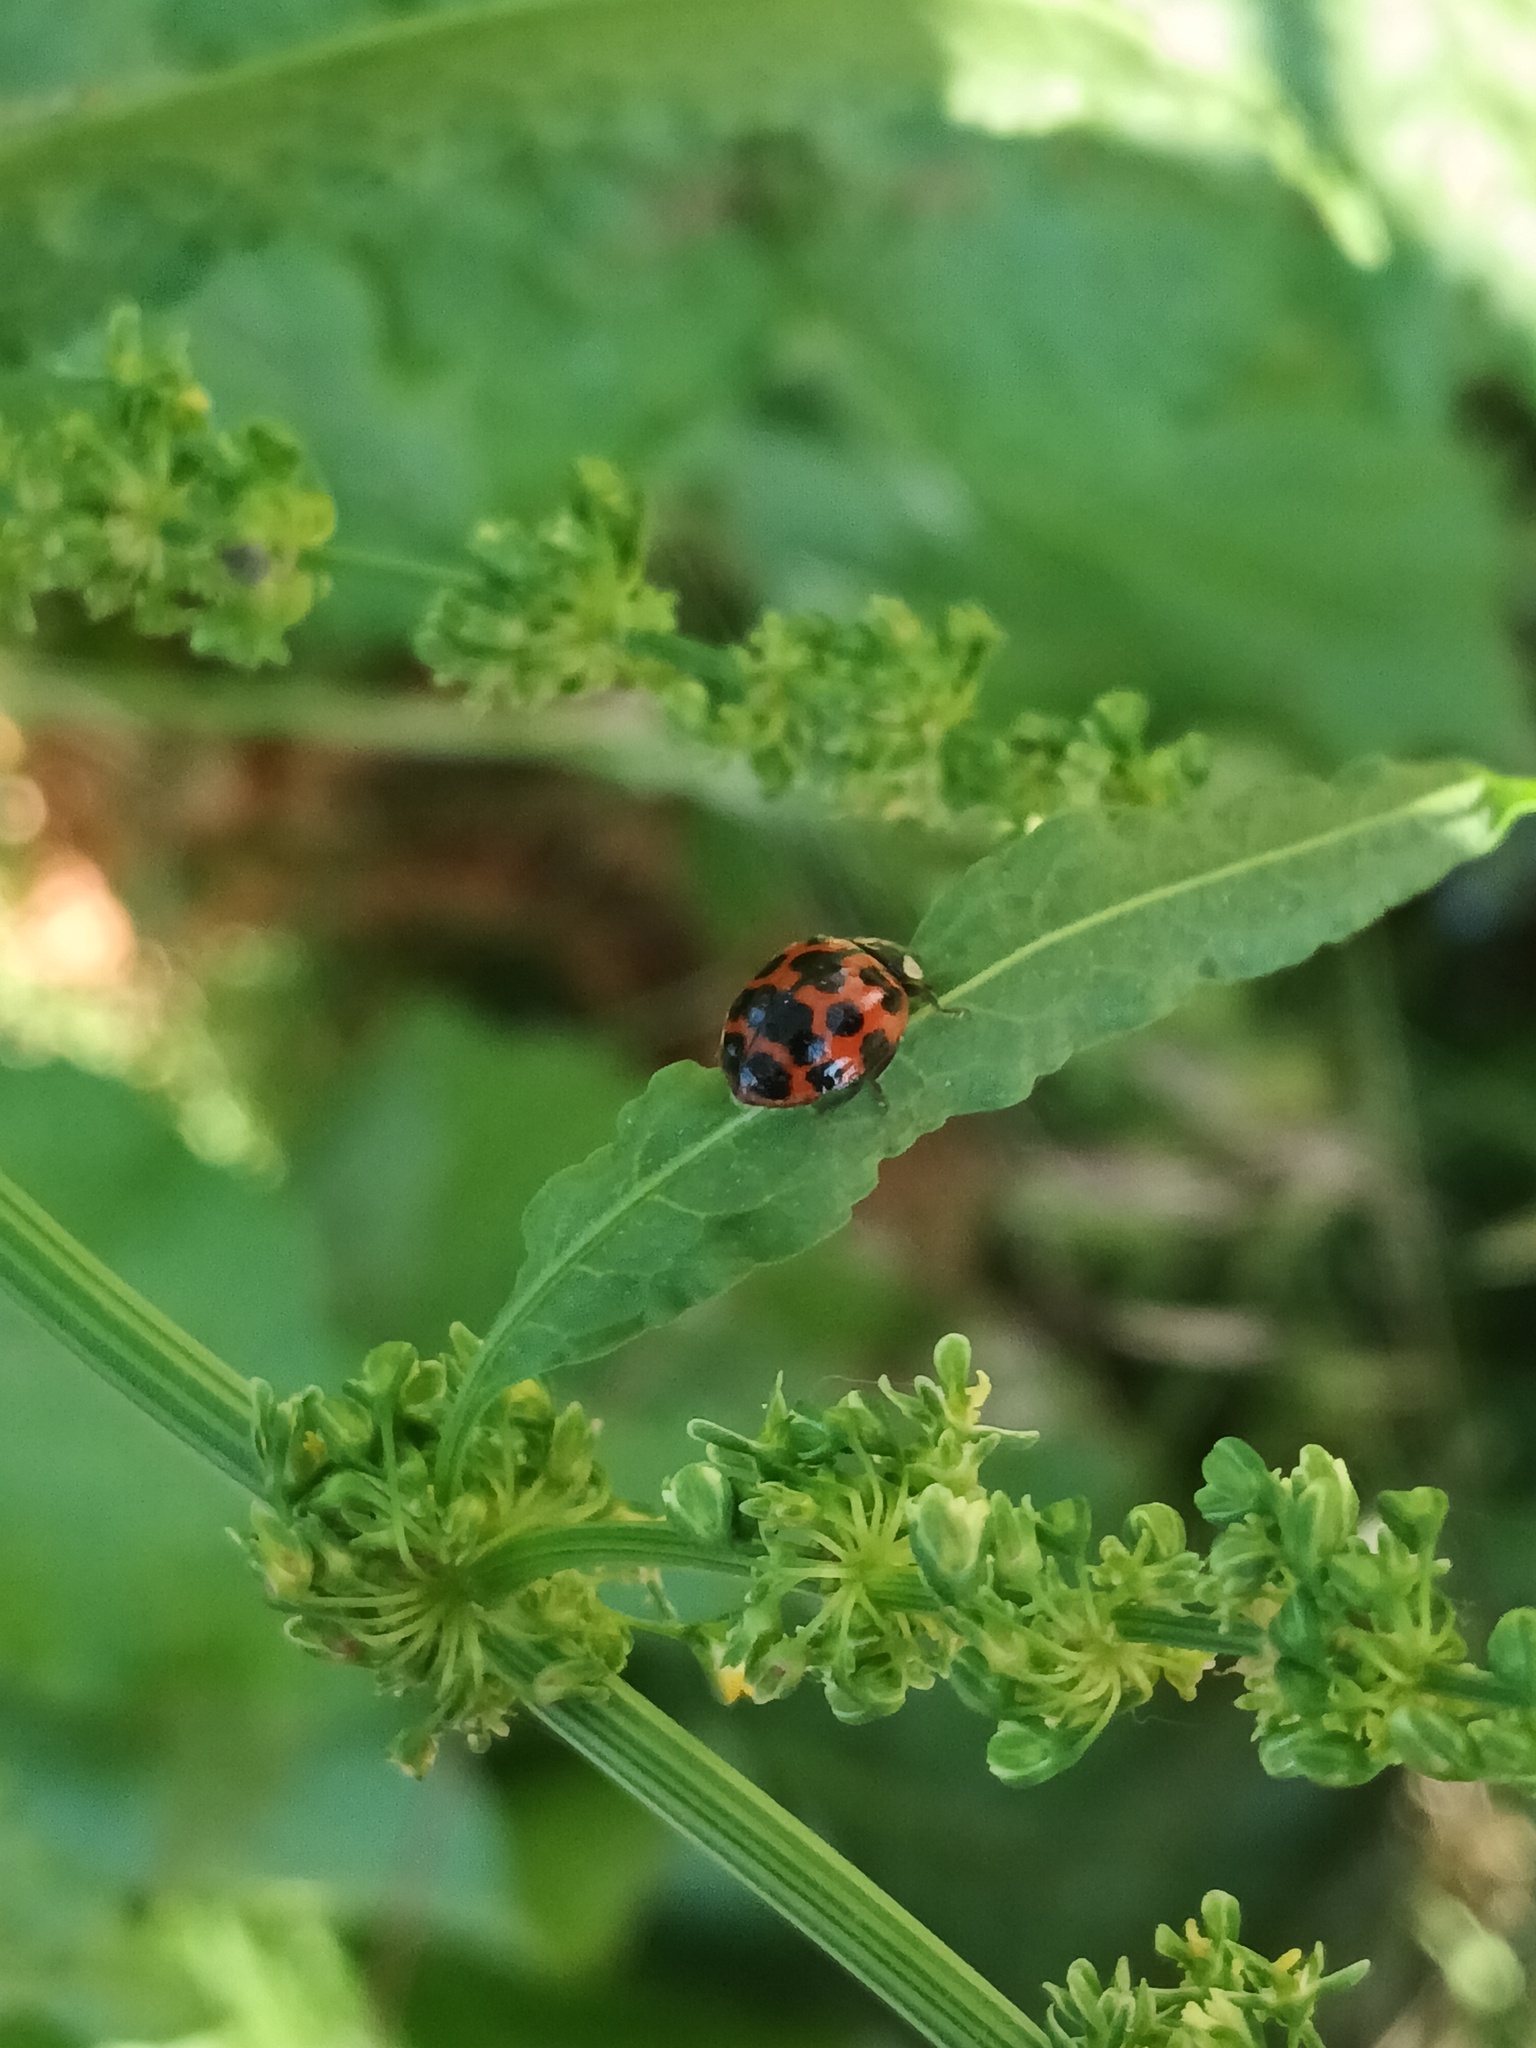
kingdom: Animalia
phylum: Arthropoda
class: Insecta
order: Coleoptera
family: Coccinellidae
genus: Harmonia
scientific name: Harmonia axyridis
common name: Harlequin ladybird
